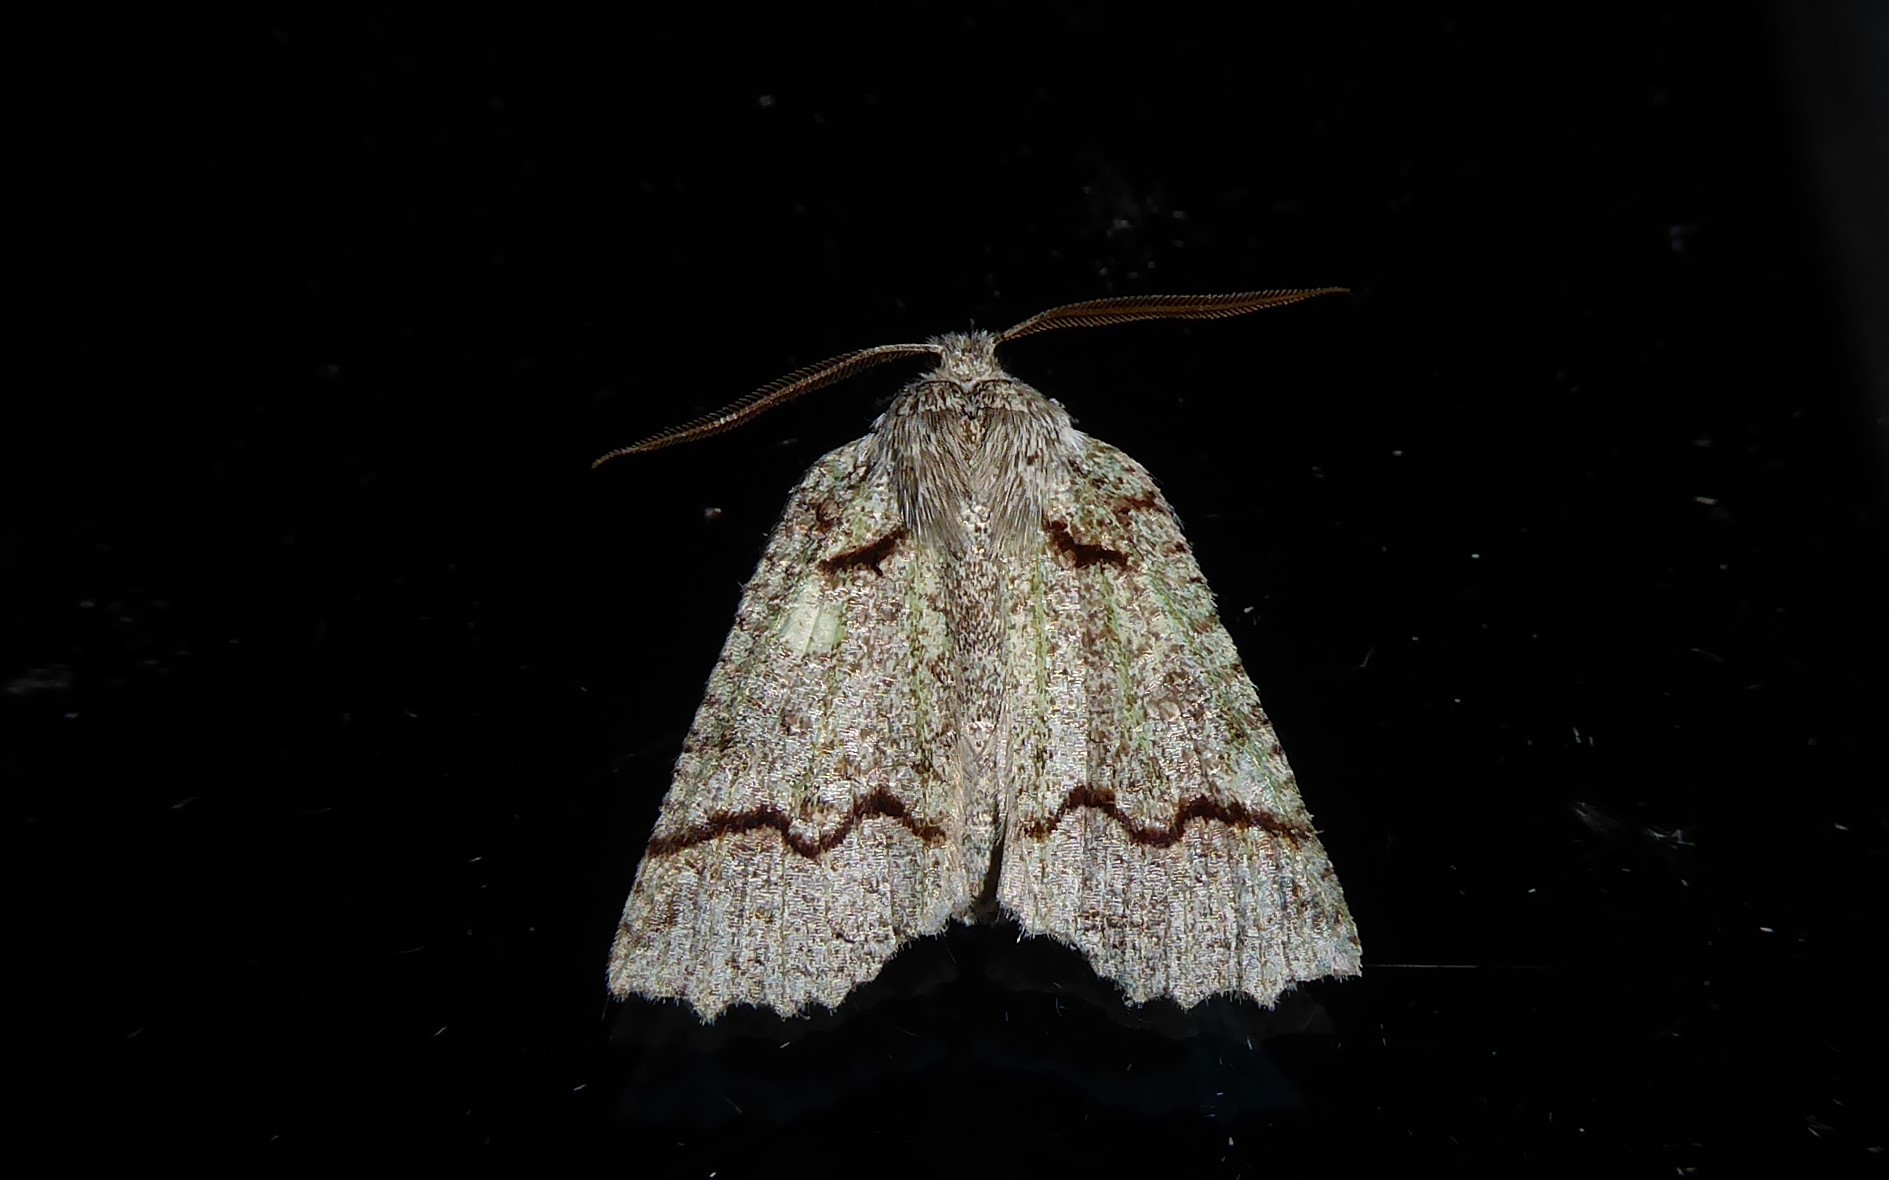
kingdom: Animalia
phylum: Arthropoda
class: Insecta
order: Lepidoptera
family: Geometridae
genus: Declana
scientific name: Declana floccosa
